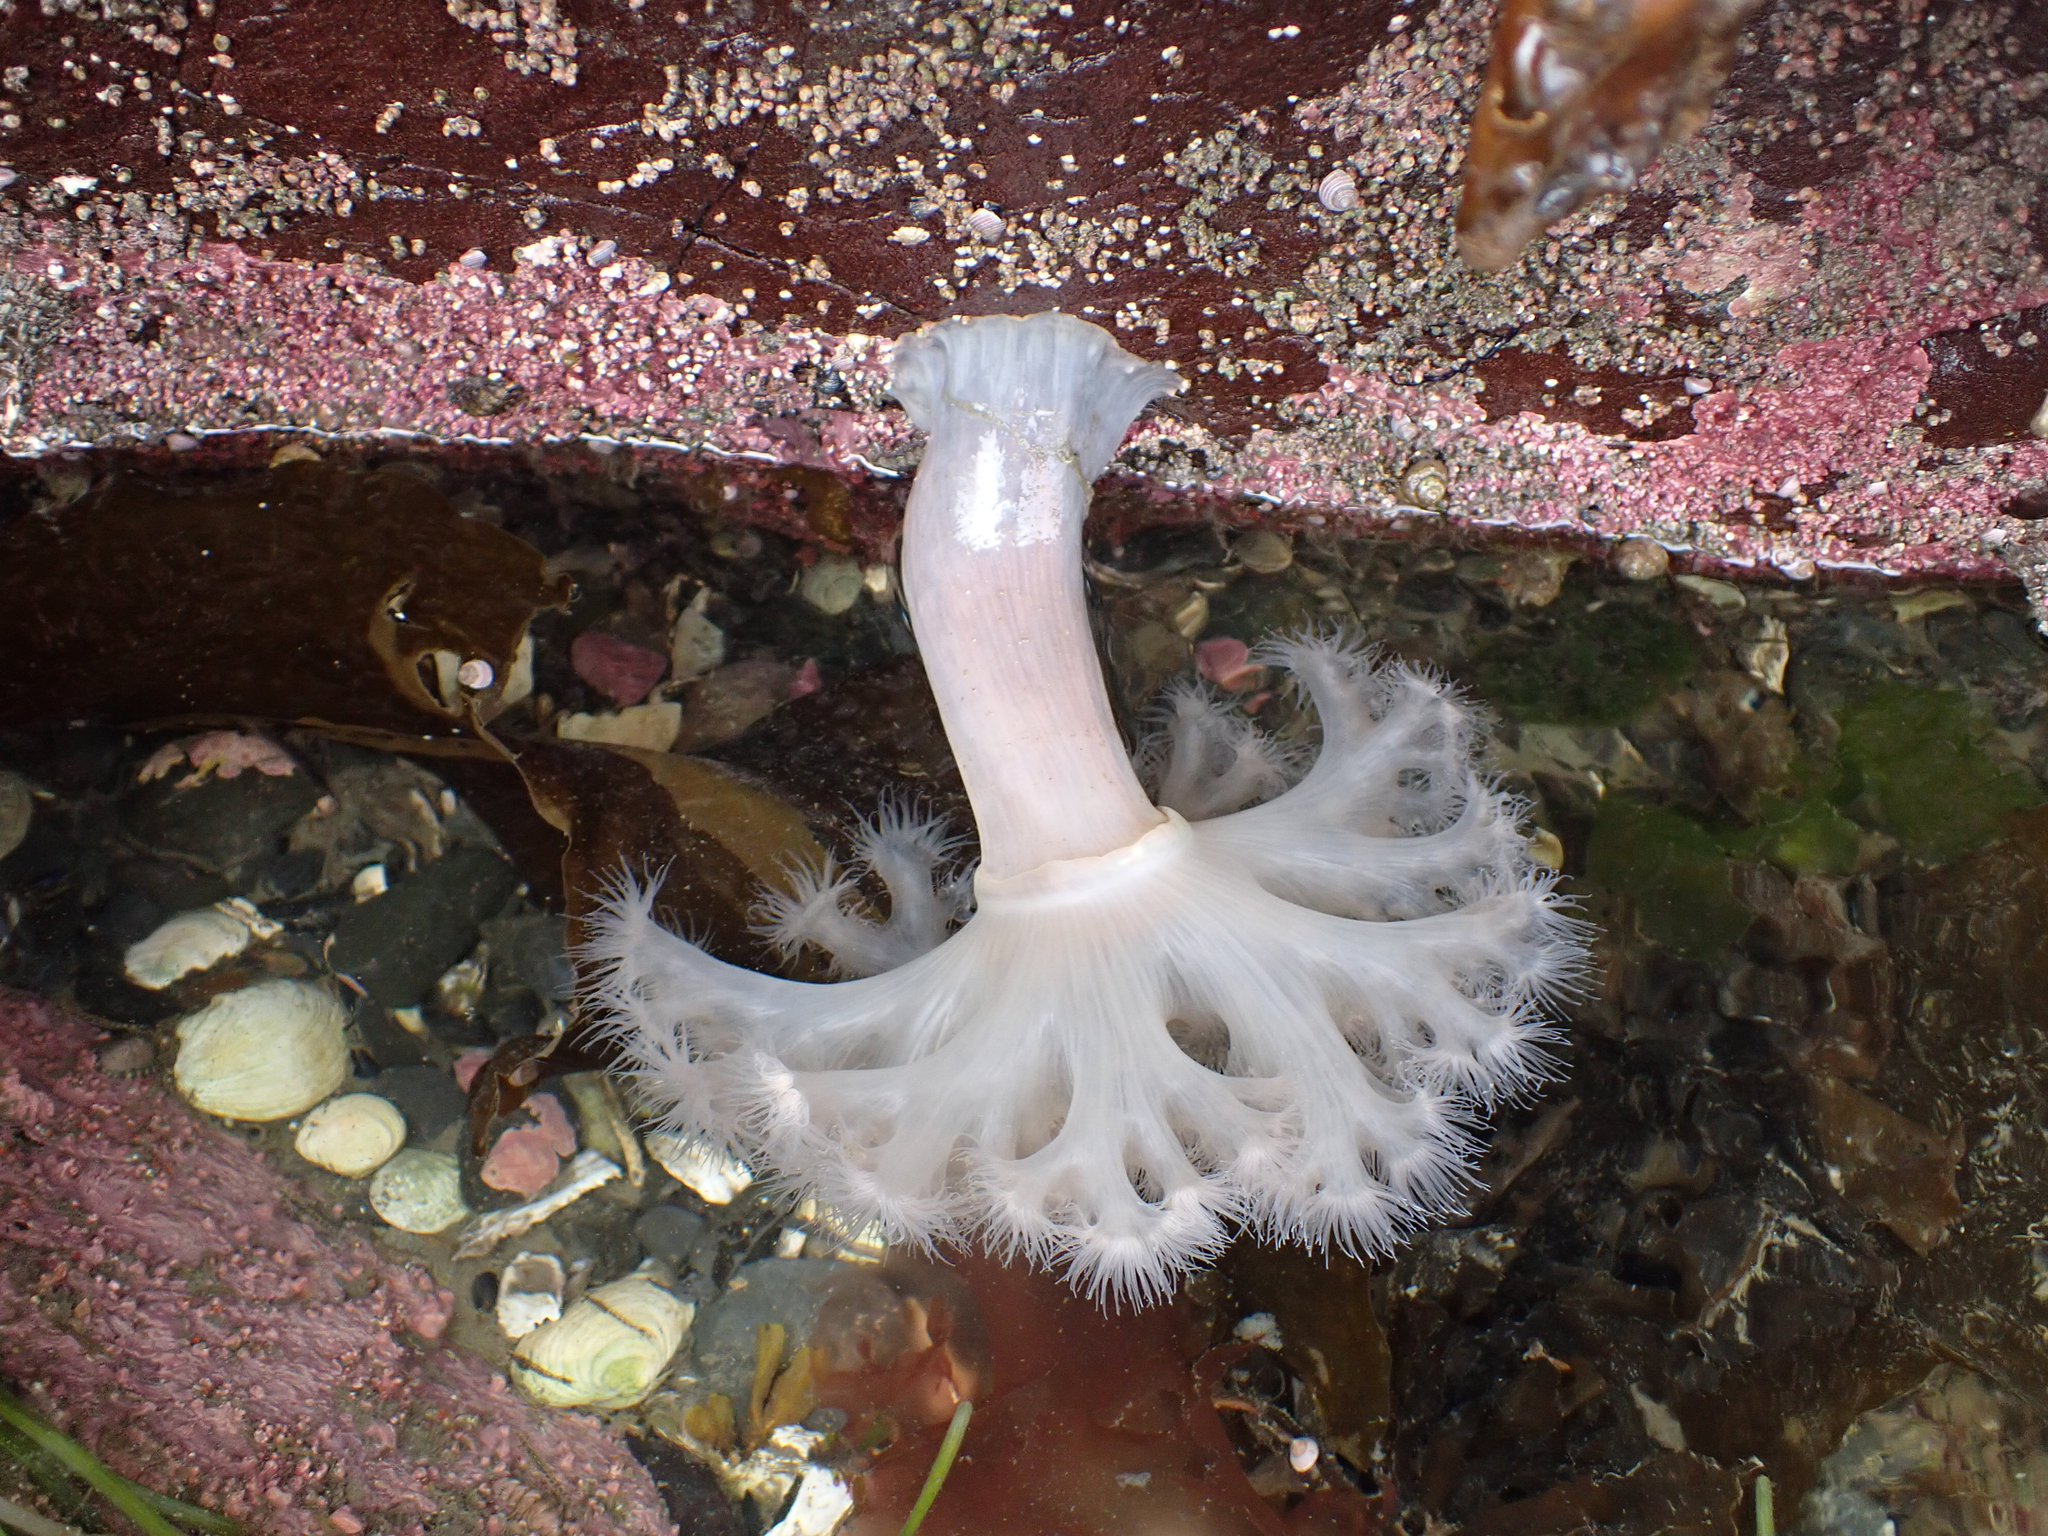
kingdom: Animalia
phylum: Cnidaria
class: Anthozoa
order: Actiniaria
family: Metridiidae
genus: Metridium
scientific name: Metridium farcimen
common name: Gigantic anemone
